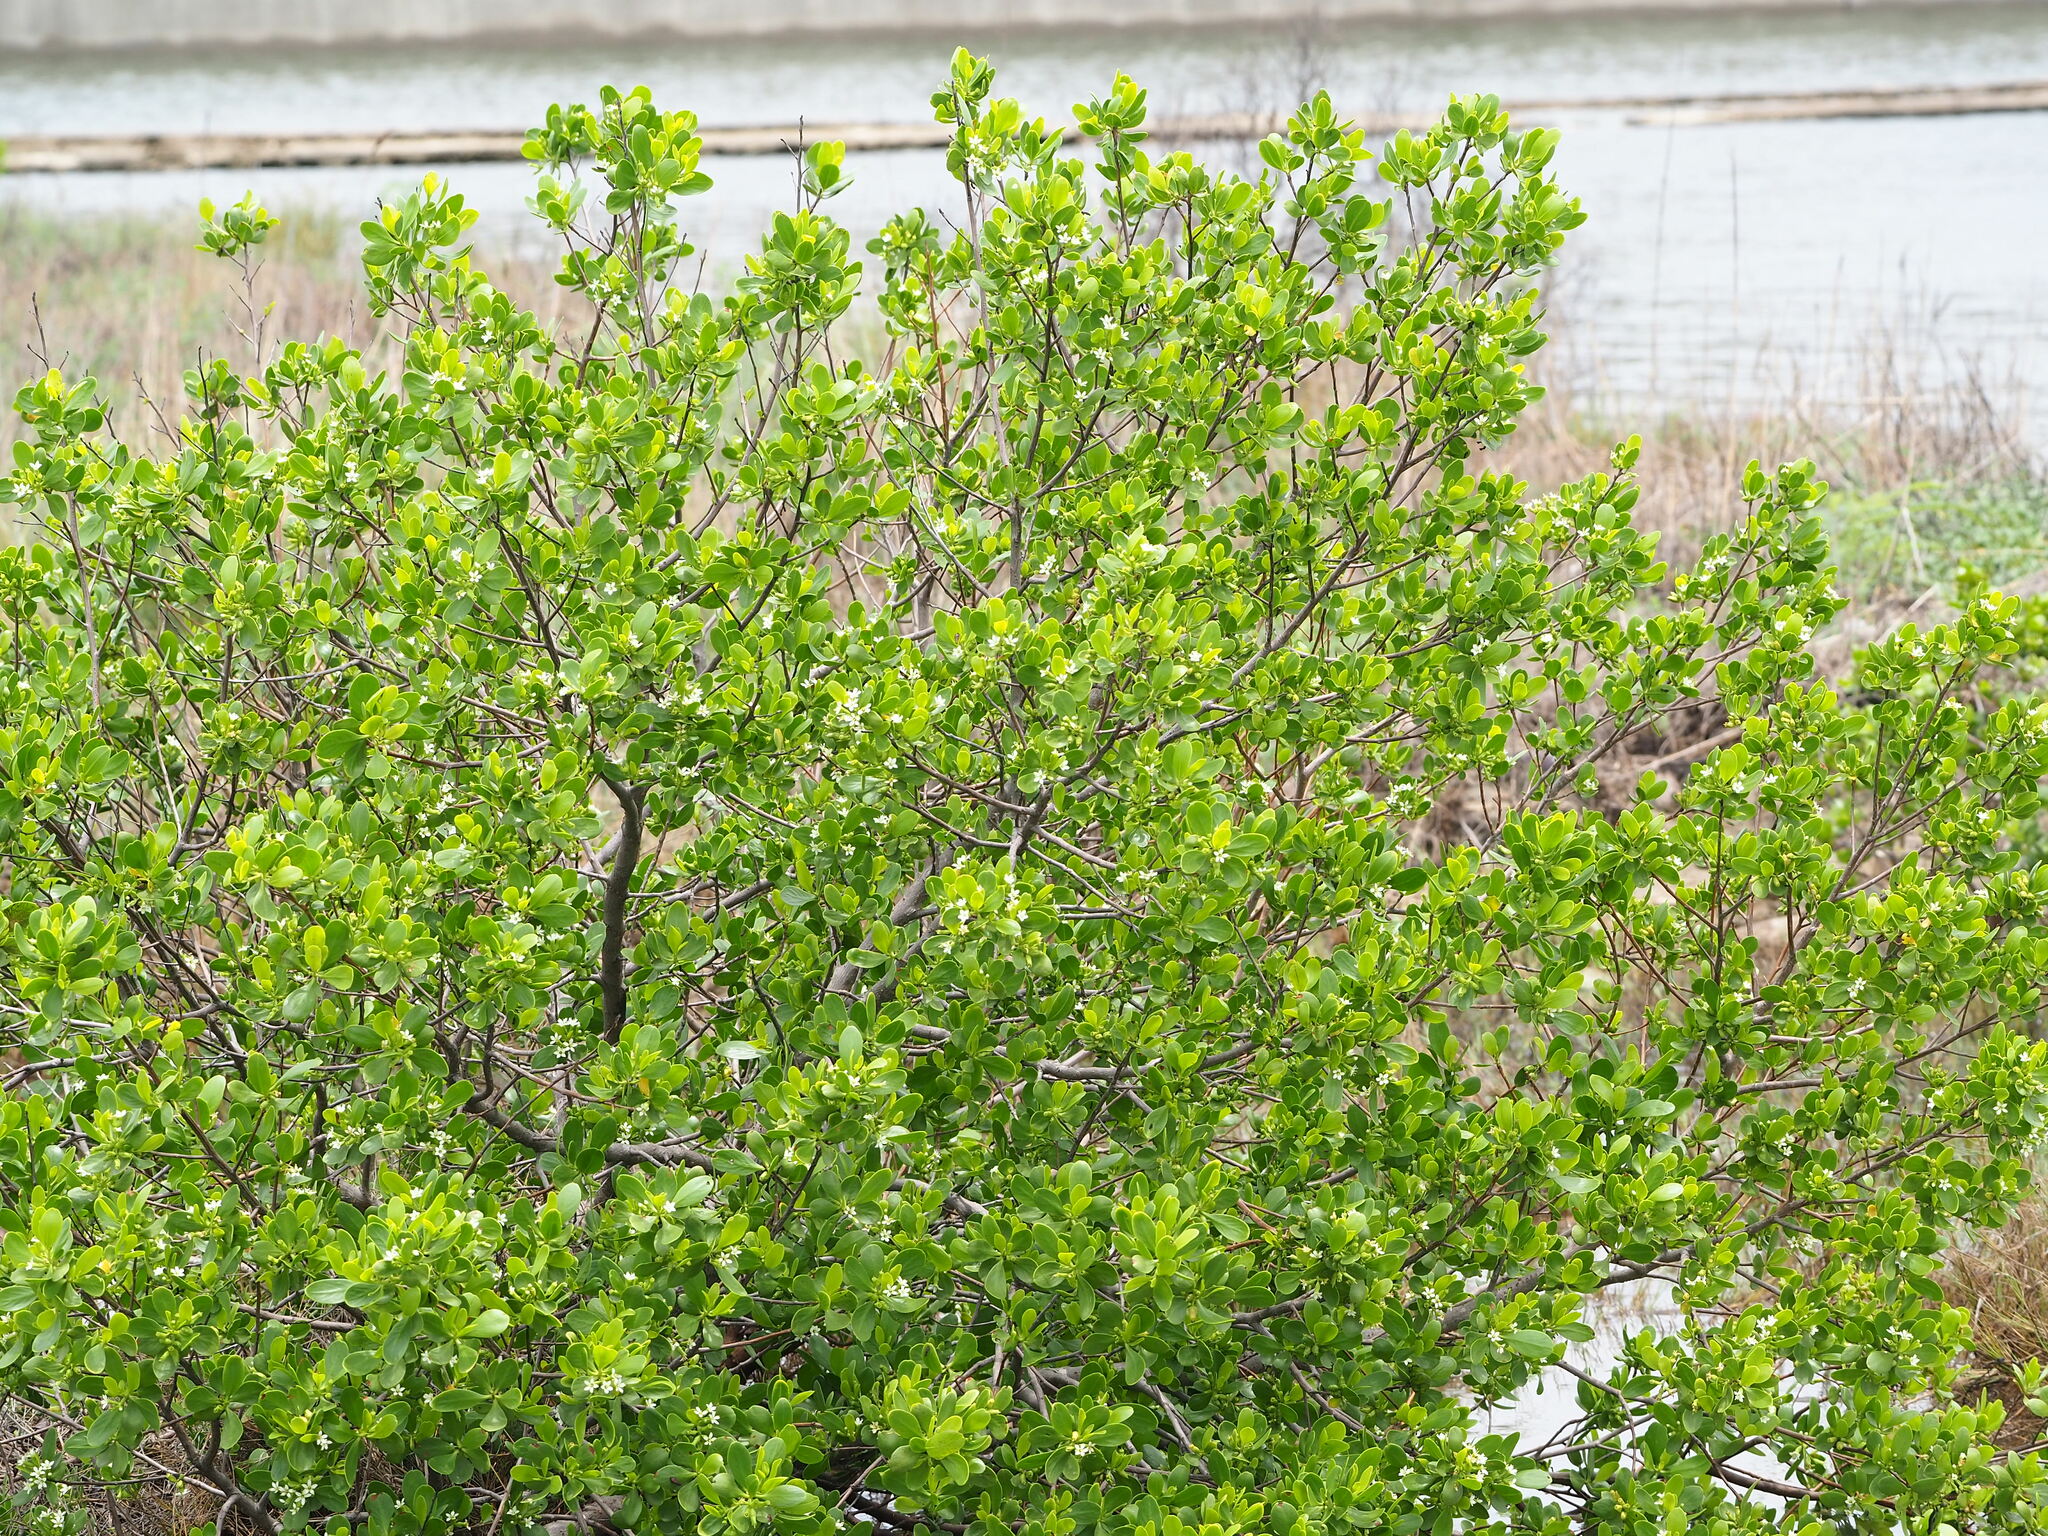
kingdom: Plantae
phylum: Tracheophyta
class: Magnoliopsida
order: Myrtales
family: Combretaceae
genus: Lumnitzera
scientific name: Lumnitzera racemosa
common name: White-flowered black mangrove
